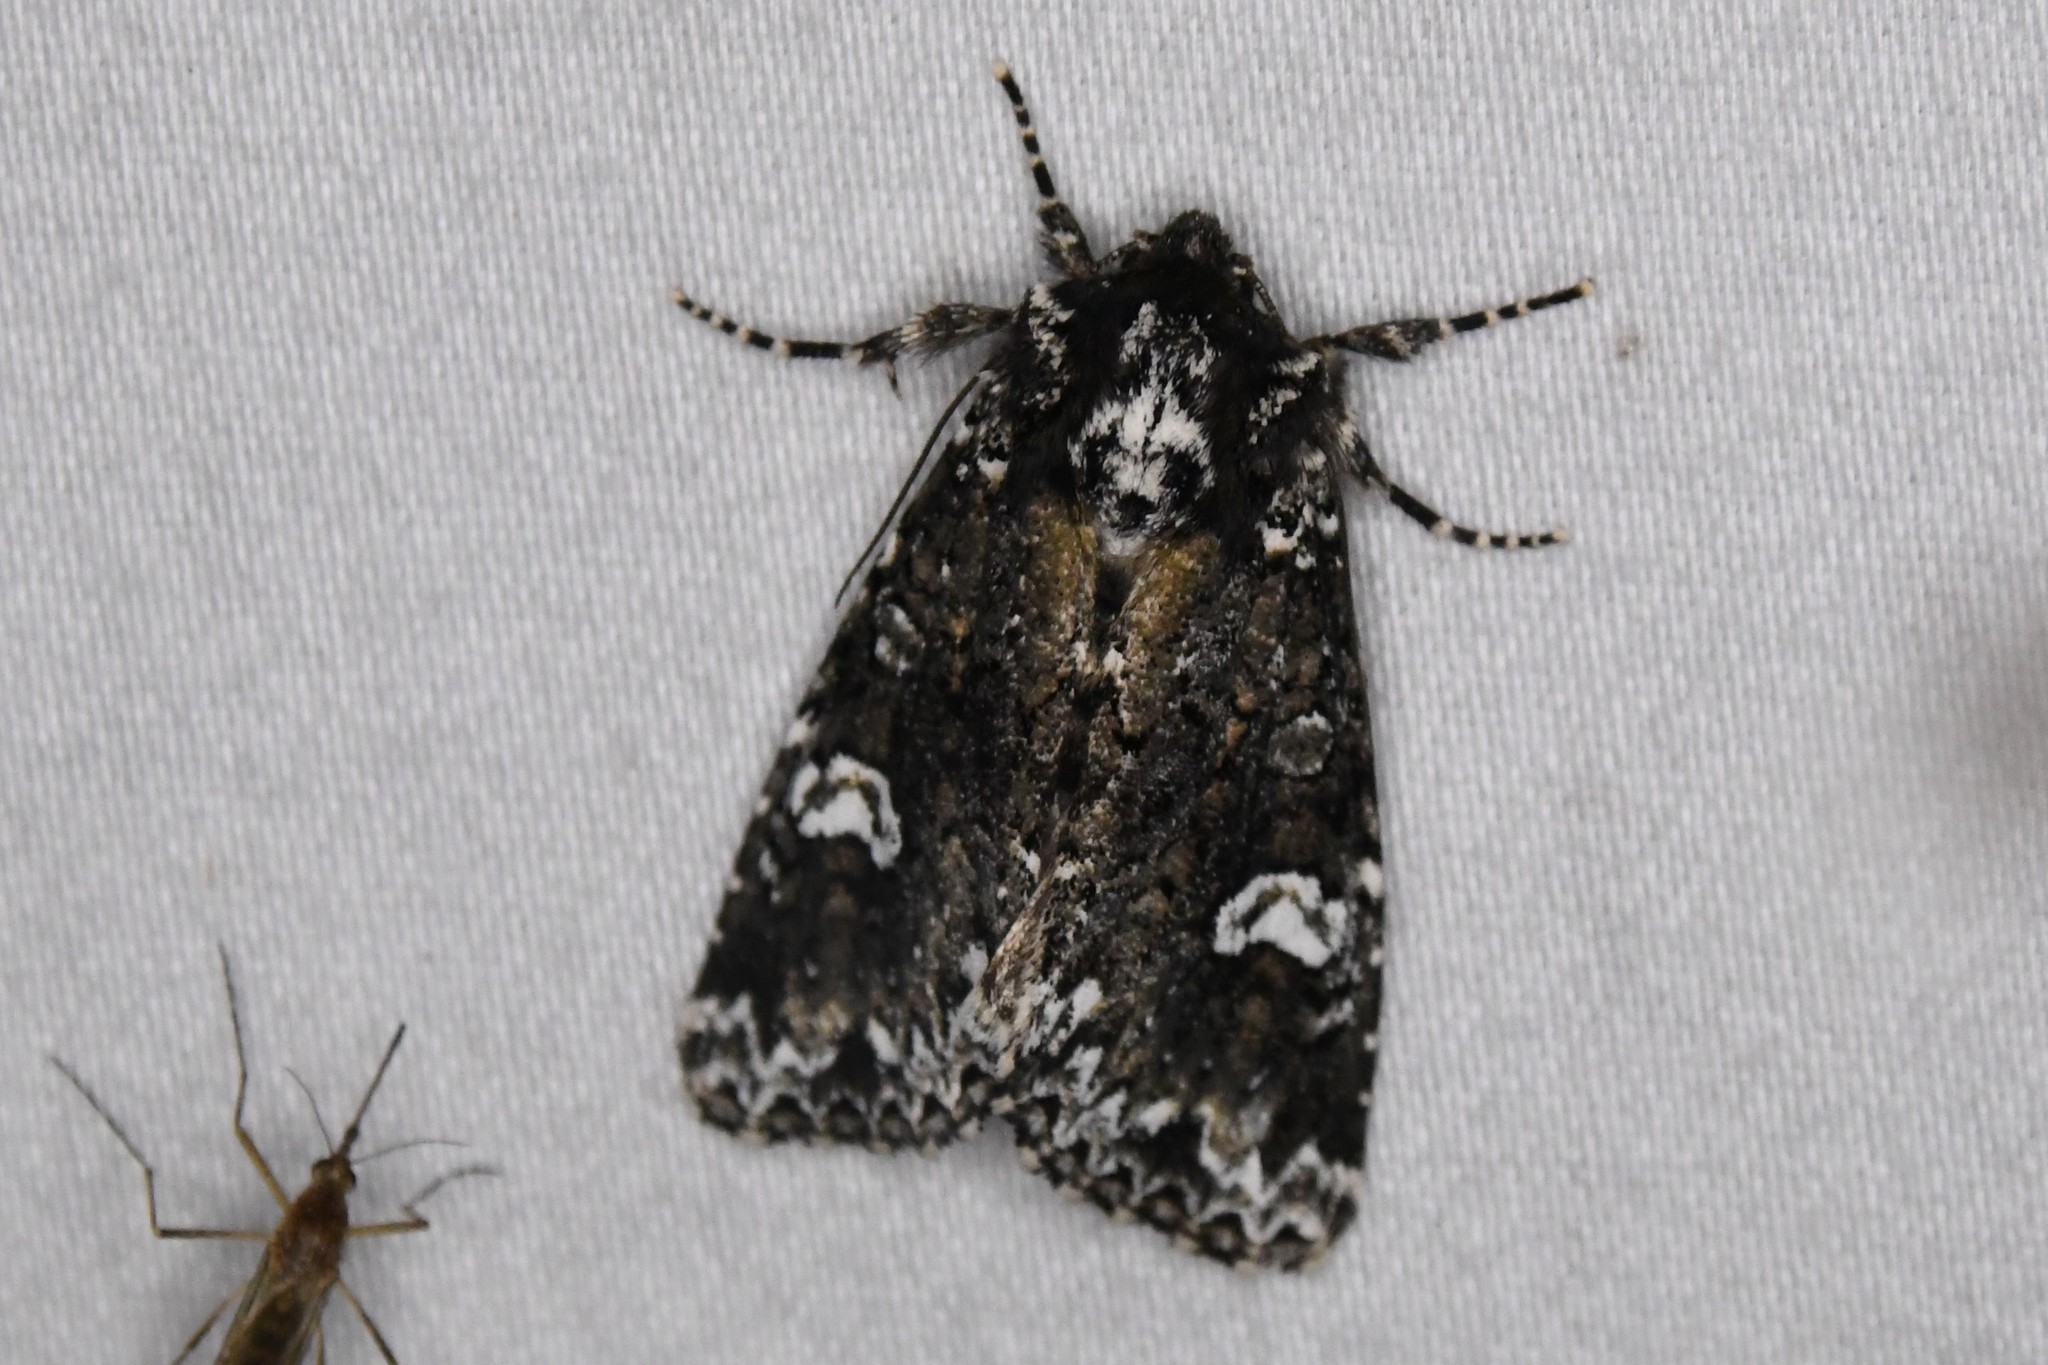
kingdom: Animalia
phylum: Arthropoda
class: Insecta
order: Lepidoptera
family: Noctuidae
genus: Melanchra
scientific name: Melanchra adjuncta
